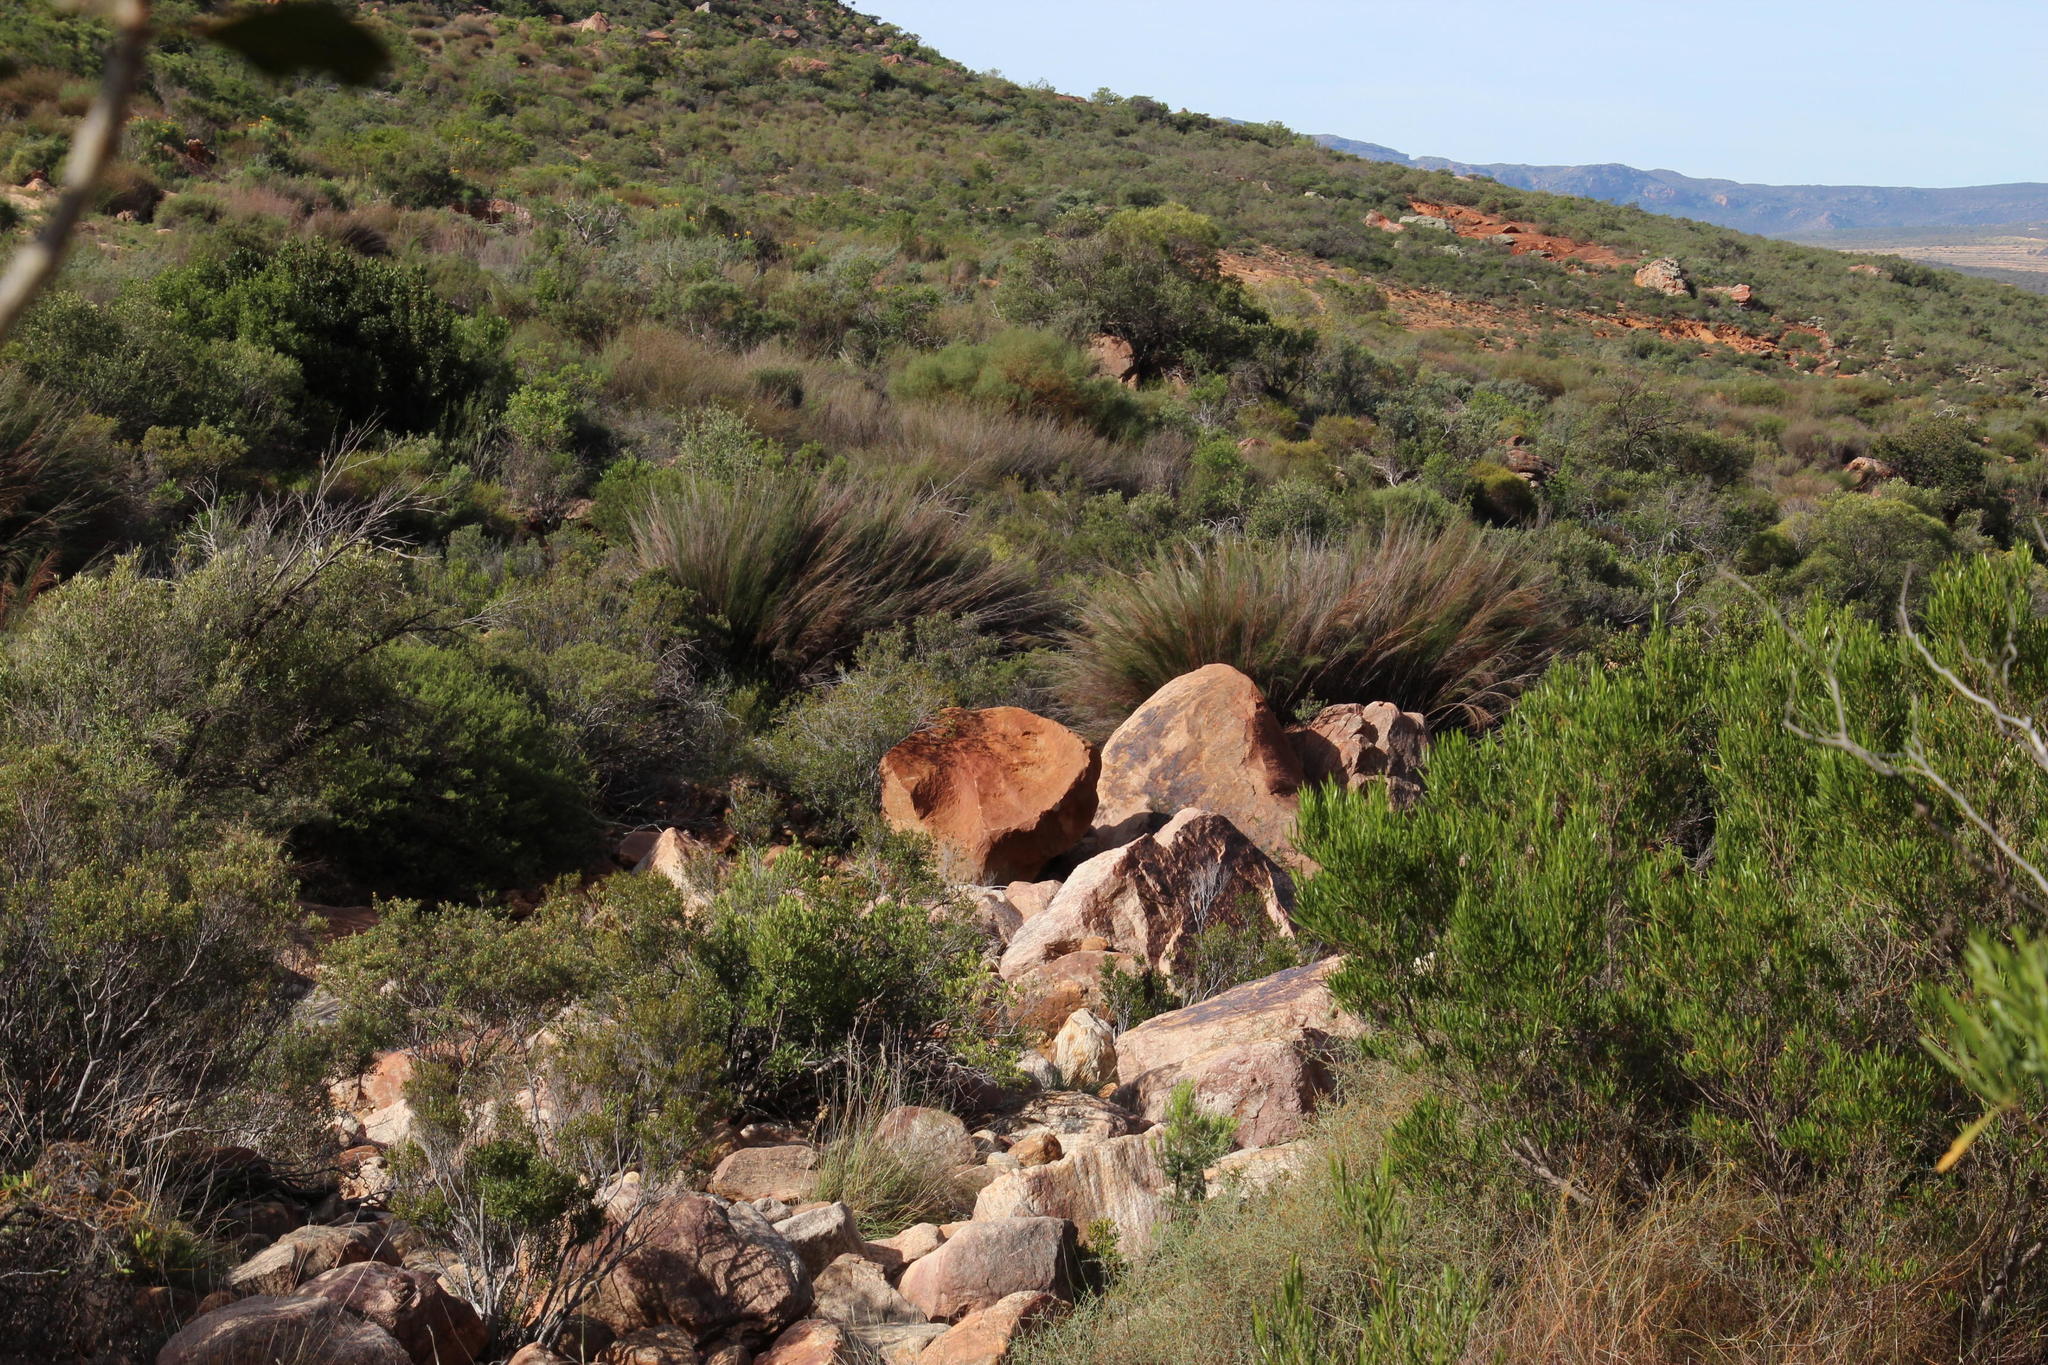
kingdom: Plantae
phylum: Tracheophyta
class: Liliopsida
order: Poales
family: Restionaceae
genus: Cannomois
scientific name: Cannomois robusta
